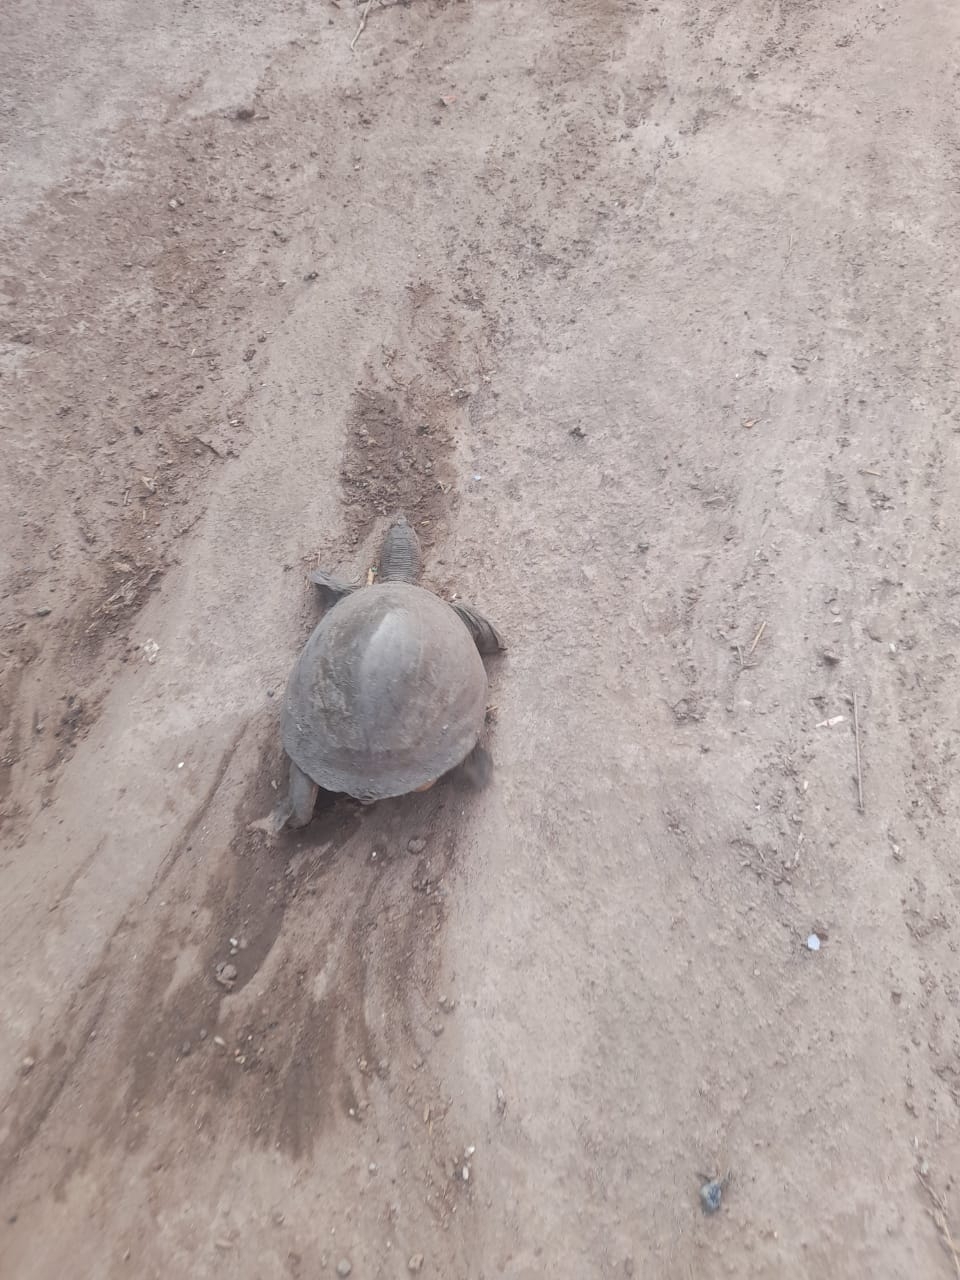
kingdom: Animalia
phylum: Chordata
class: Testudines
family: Trionychidae
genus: Lissemys
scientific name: Lissemys punctata
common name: Indian flap-shelled turtle
